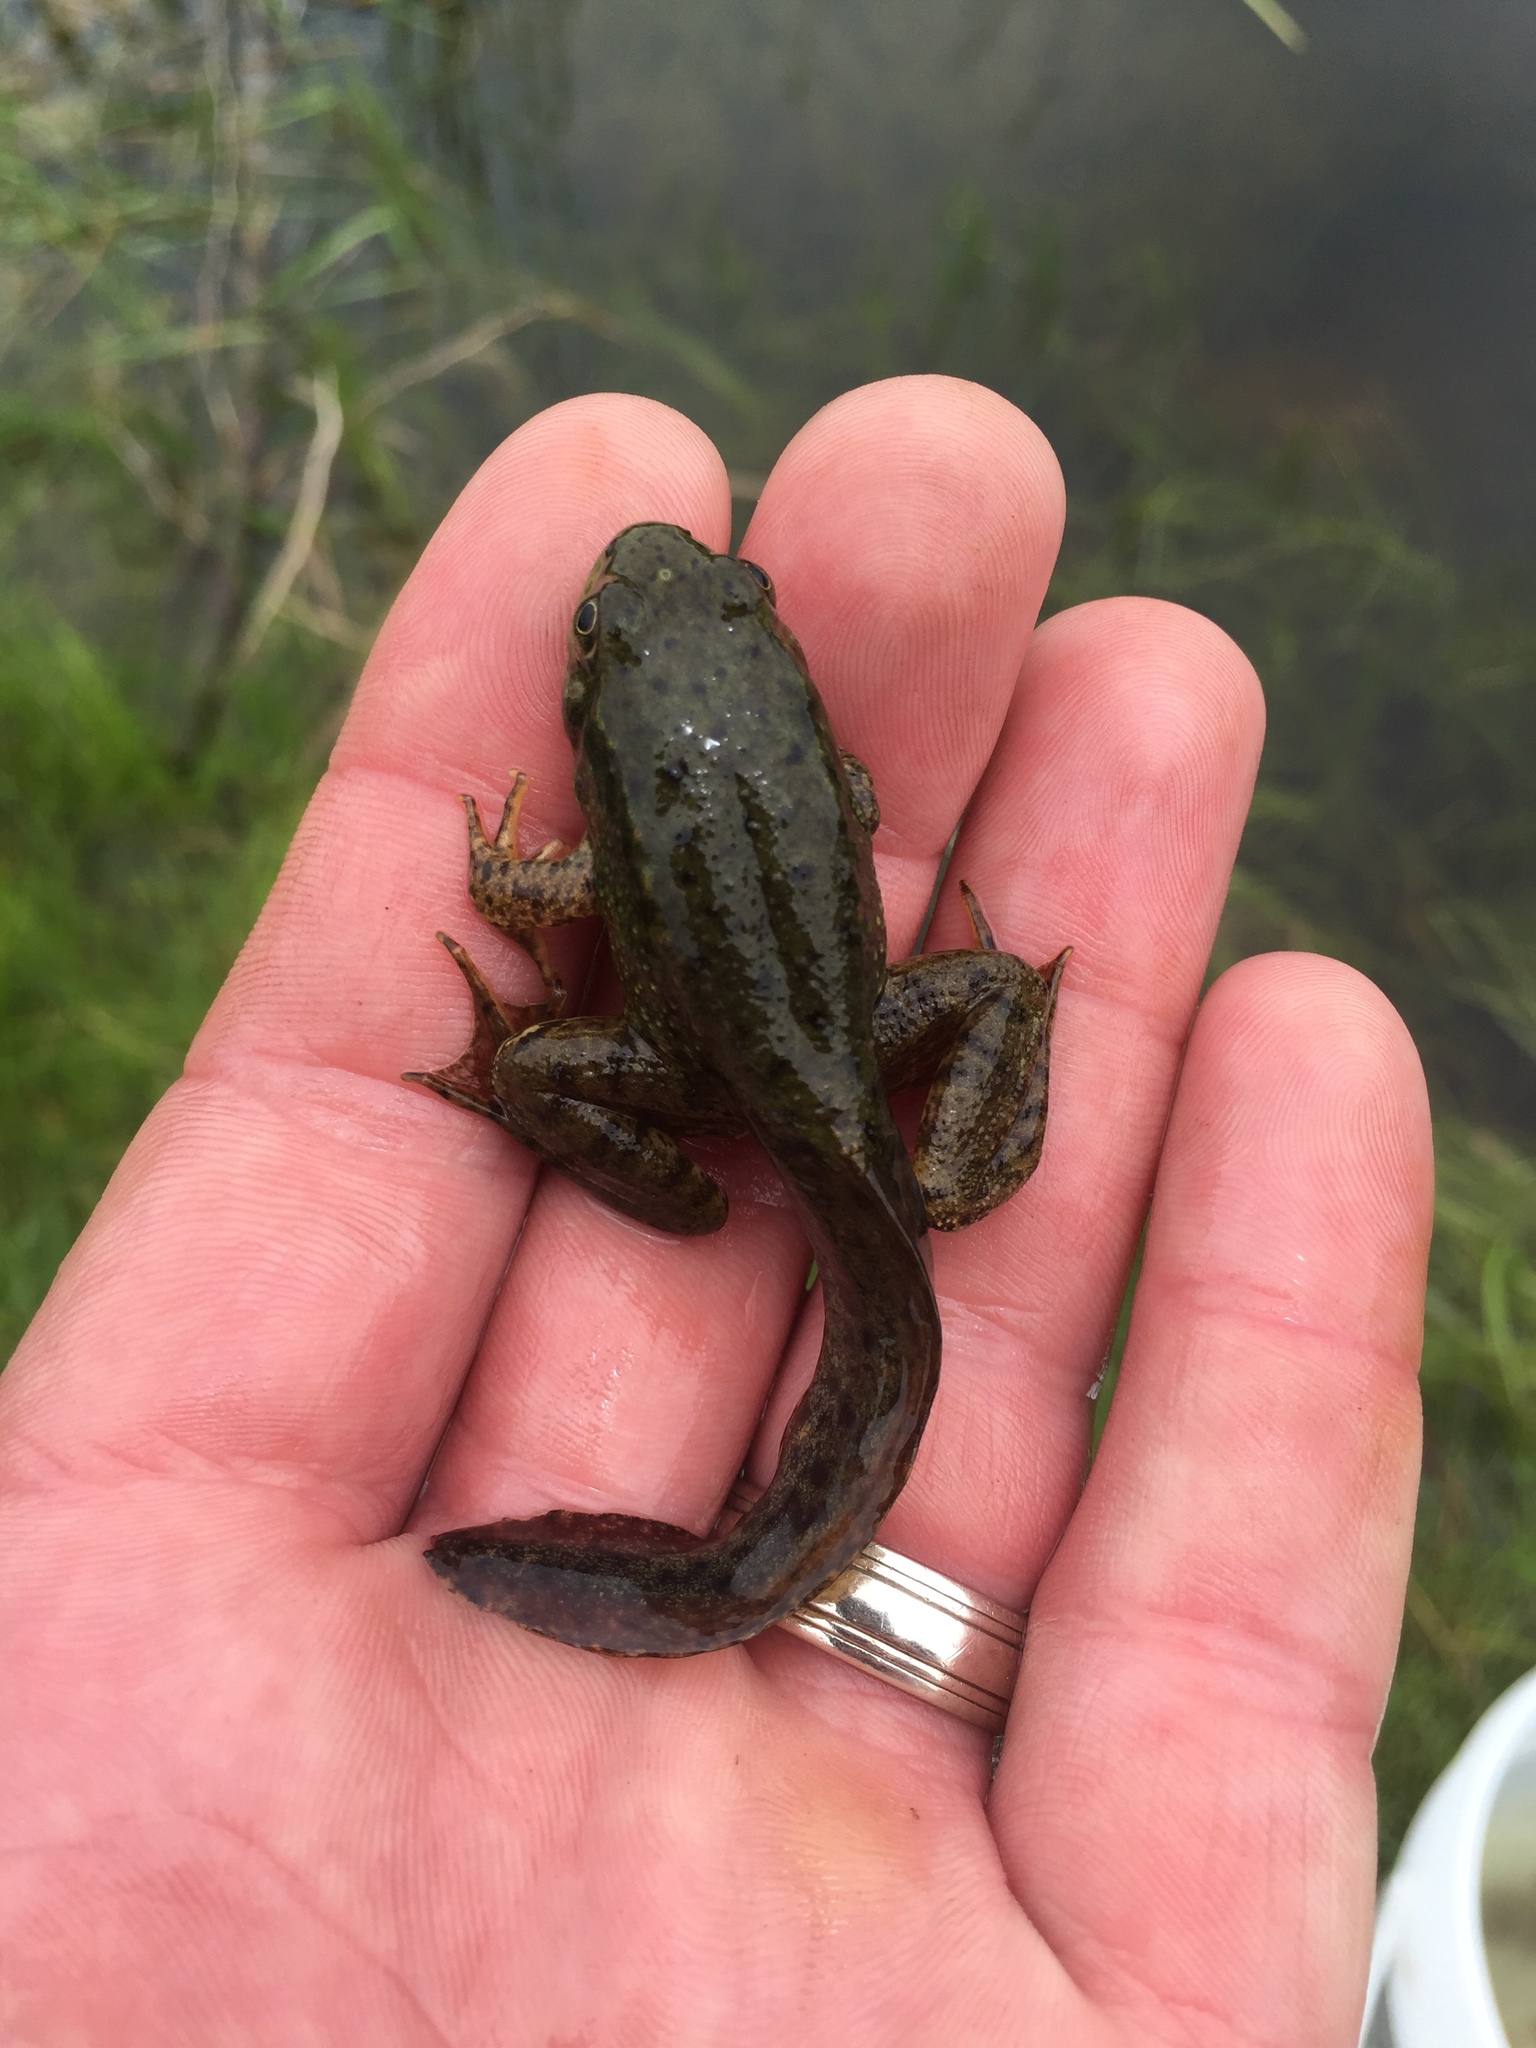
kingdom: Animalia
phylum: Chordata
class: Amphibia
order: Anura
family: Ranidae
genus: Lithobates
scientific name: Lithobates clamitans
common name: Green frog
